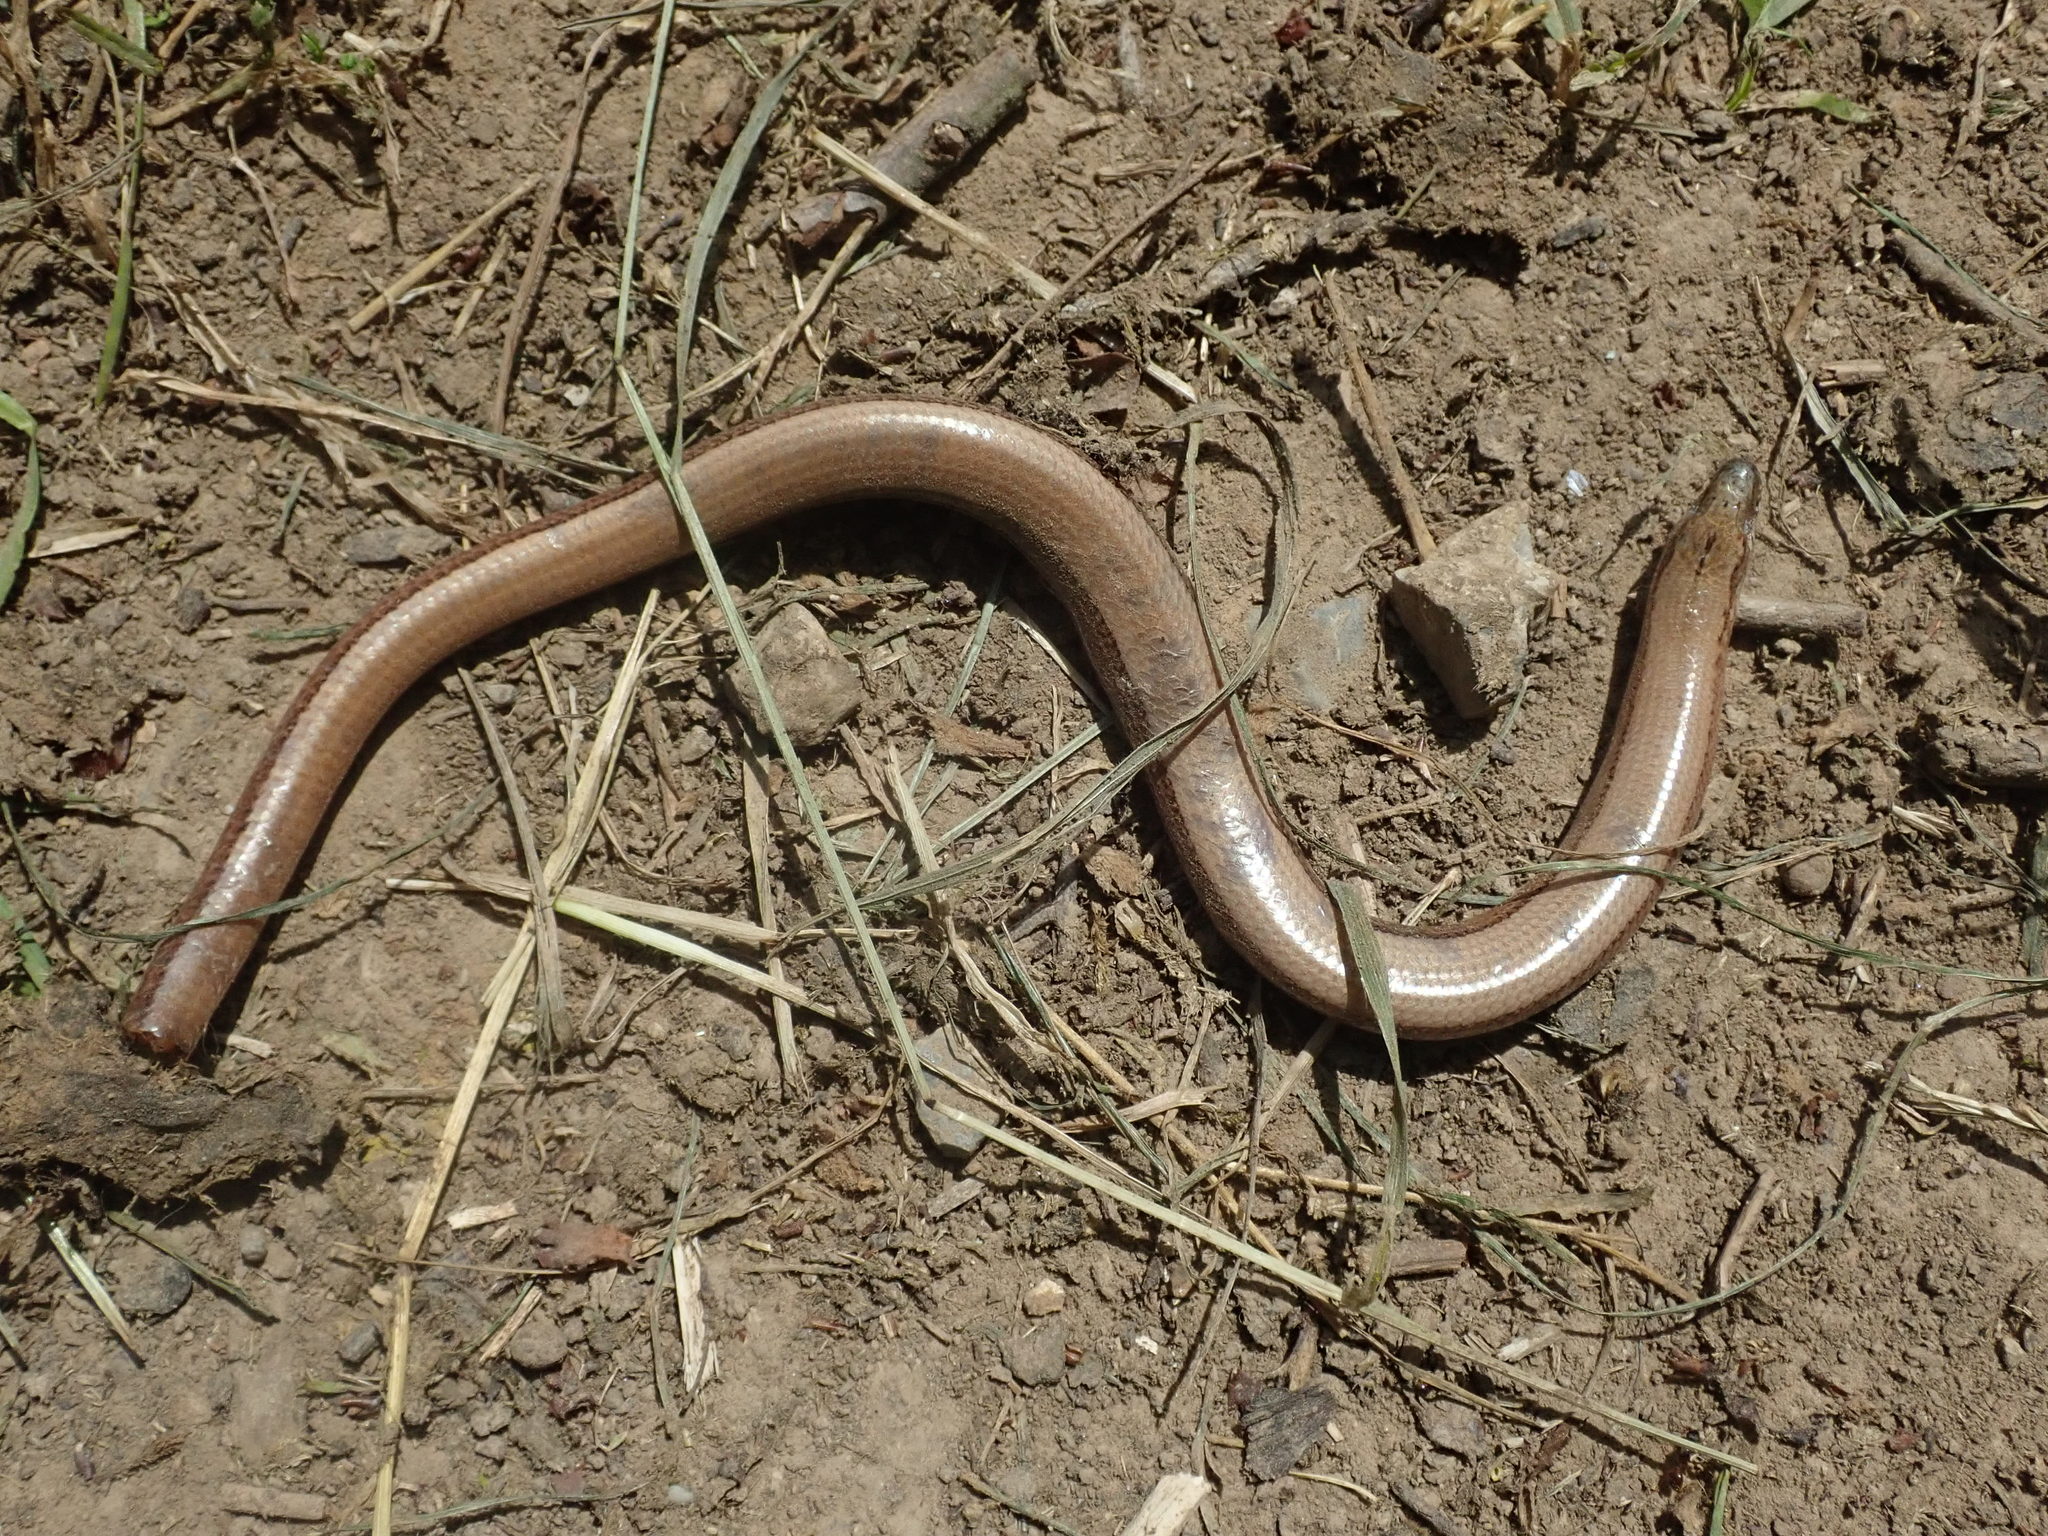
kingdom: Animalia
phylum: Chordata
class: Squamata
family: Anguidae
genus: Anguis
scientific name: Anguis fragilis
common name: Slow worm
